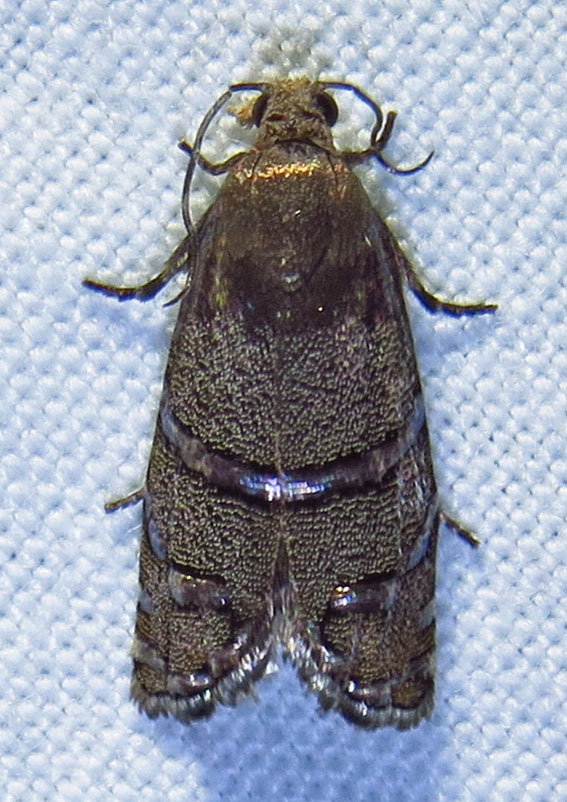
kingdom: Animalia
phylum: Arthropoda
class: Insecta
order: Lepidoptera
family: Tortricidae
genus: Cydia
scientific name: Cydia toreuta
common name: Eastern pine seedworm moth
